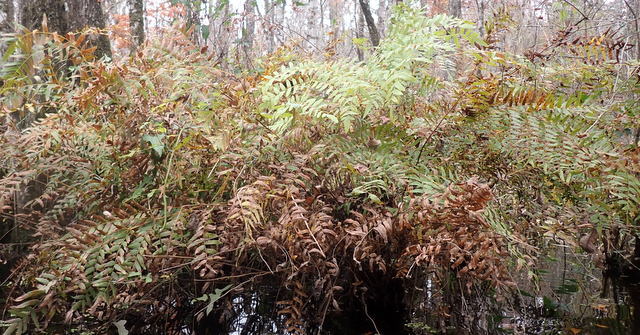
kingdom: Plantae
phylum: Tracheophyta
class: Polypodiopsida
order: Osmundales
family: Osmundaceae
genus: Osmunda
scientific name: Osmunda spectabilis
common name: American royal fern
